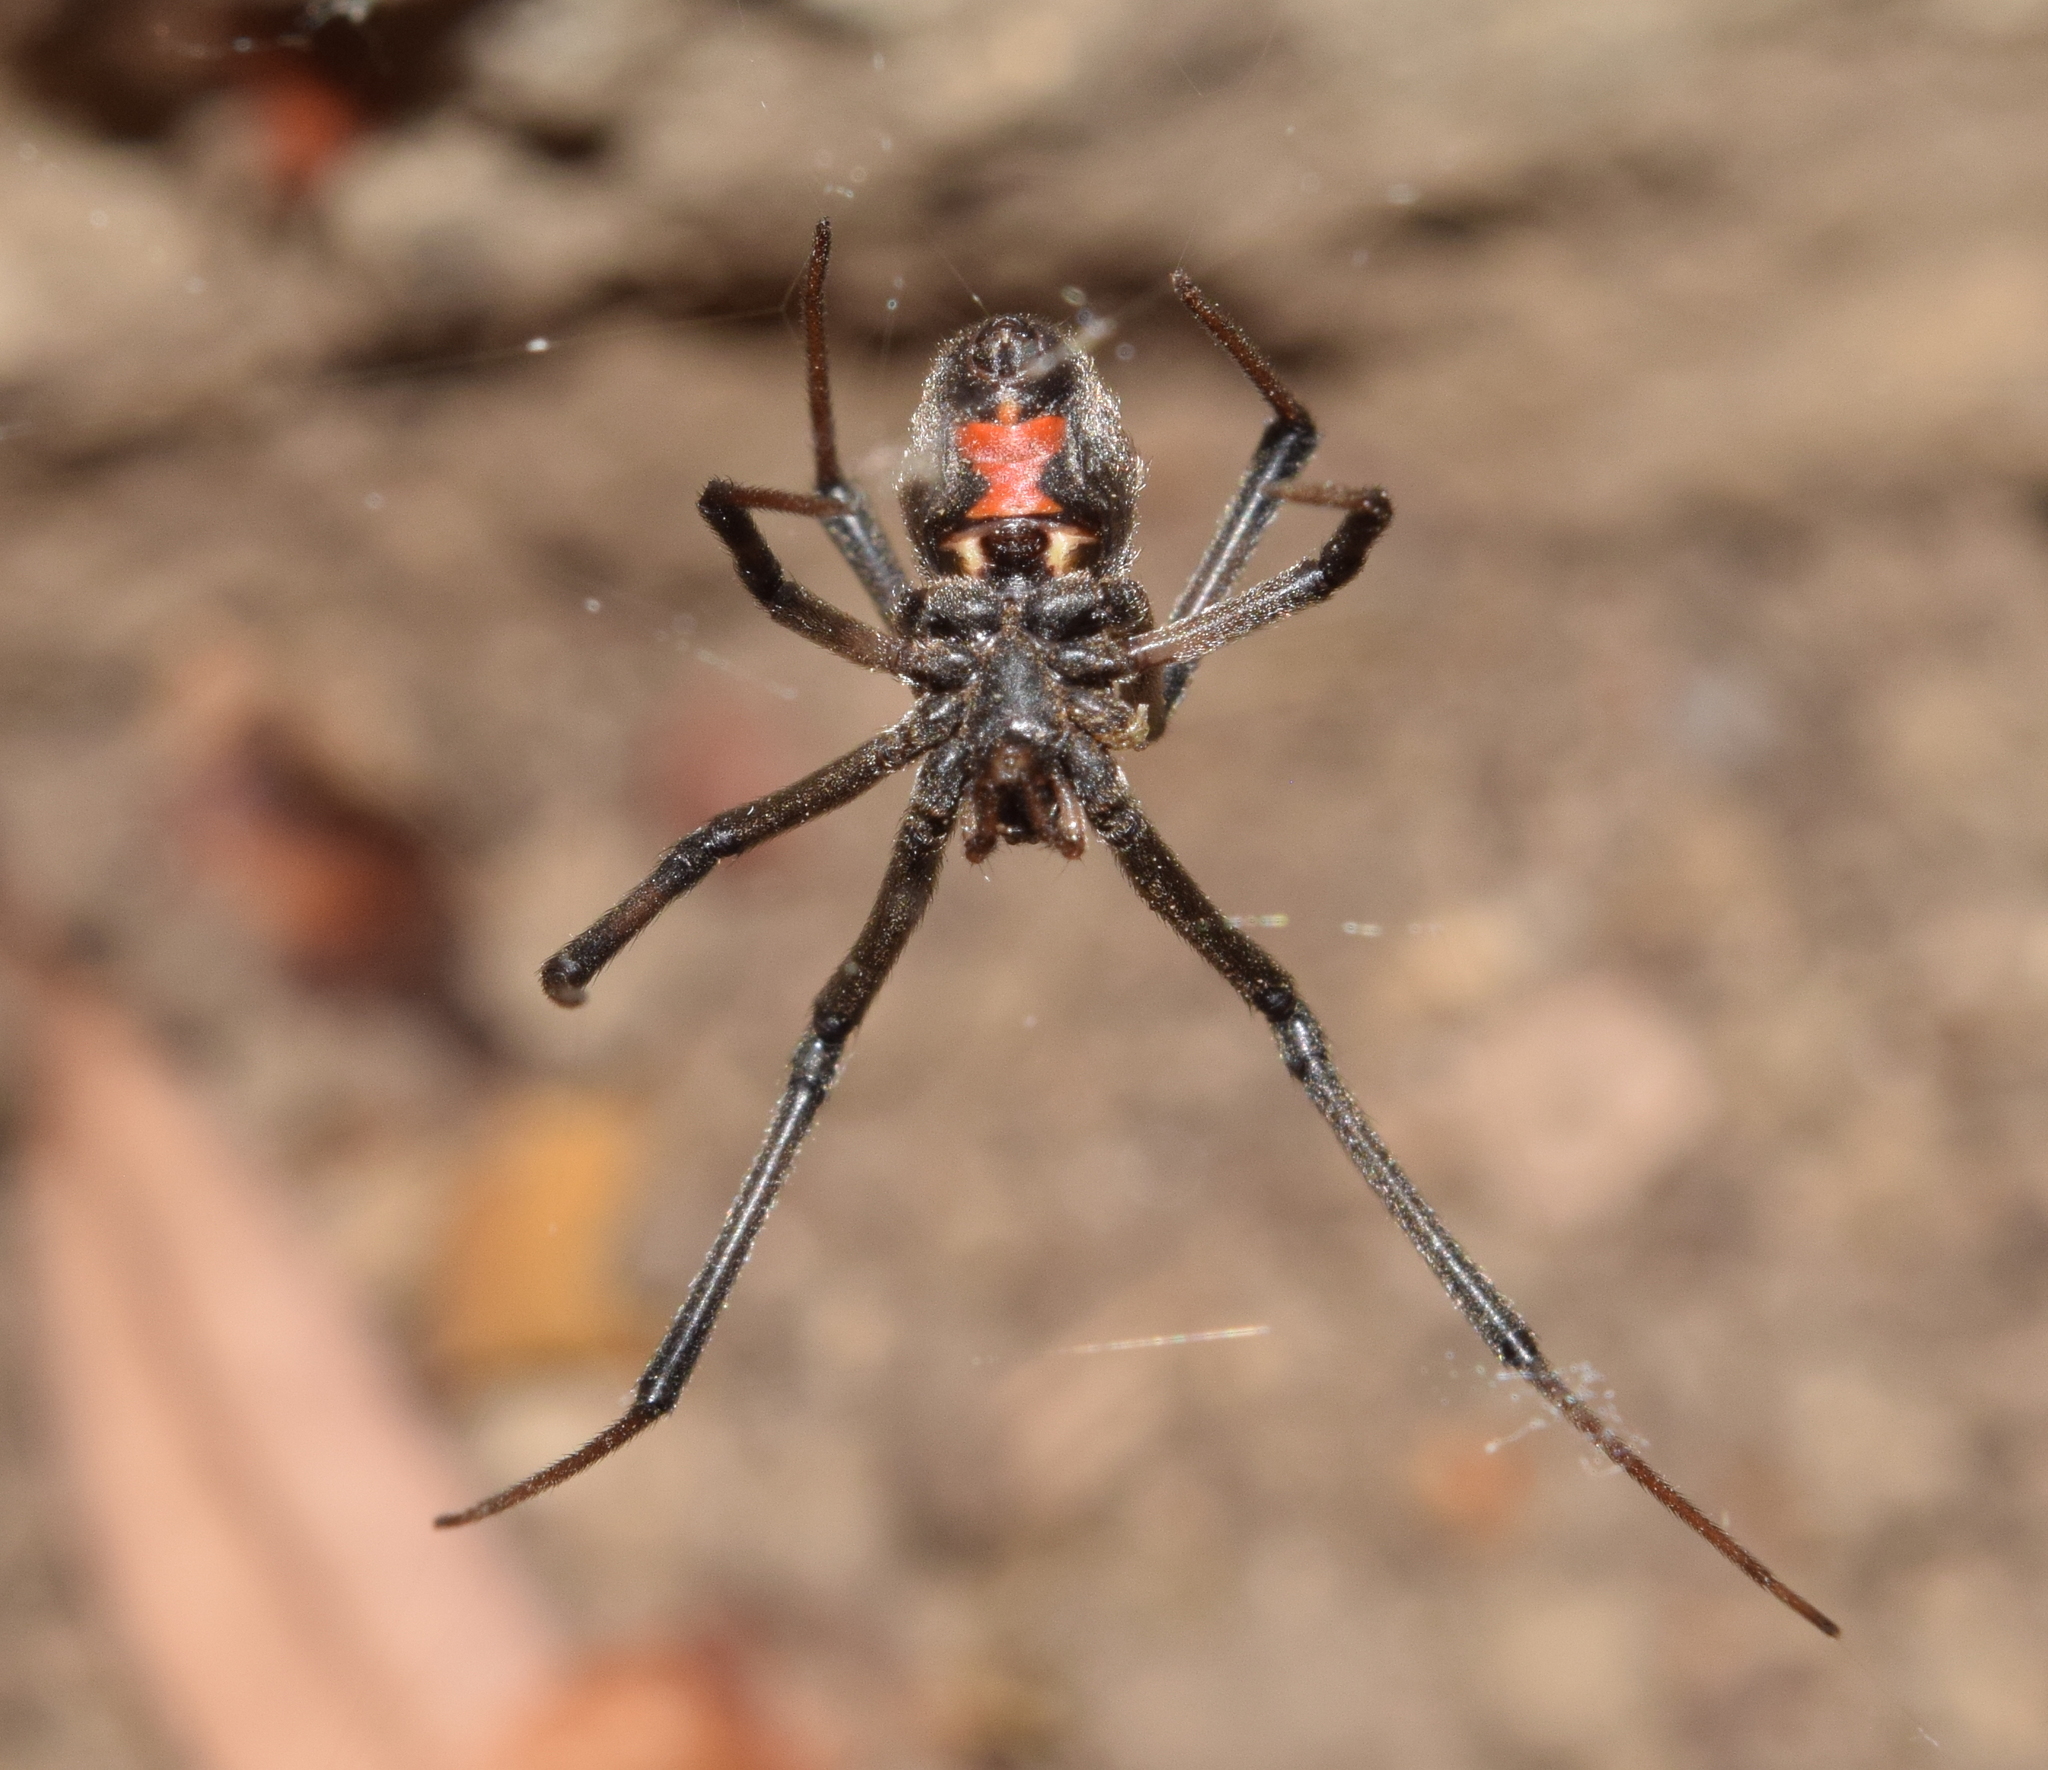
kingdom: Animalia
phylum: Arthropoda
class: Arachnida
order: Araneae
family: Theridiidae
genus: Latrodectus
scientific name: Latrodectus geometricus
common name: Brown widow spider
